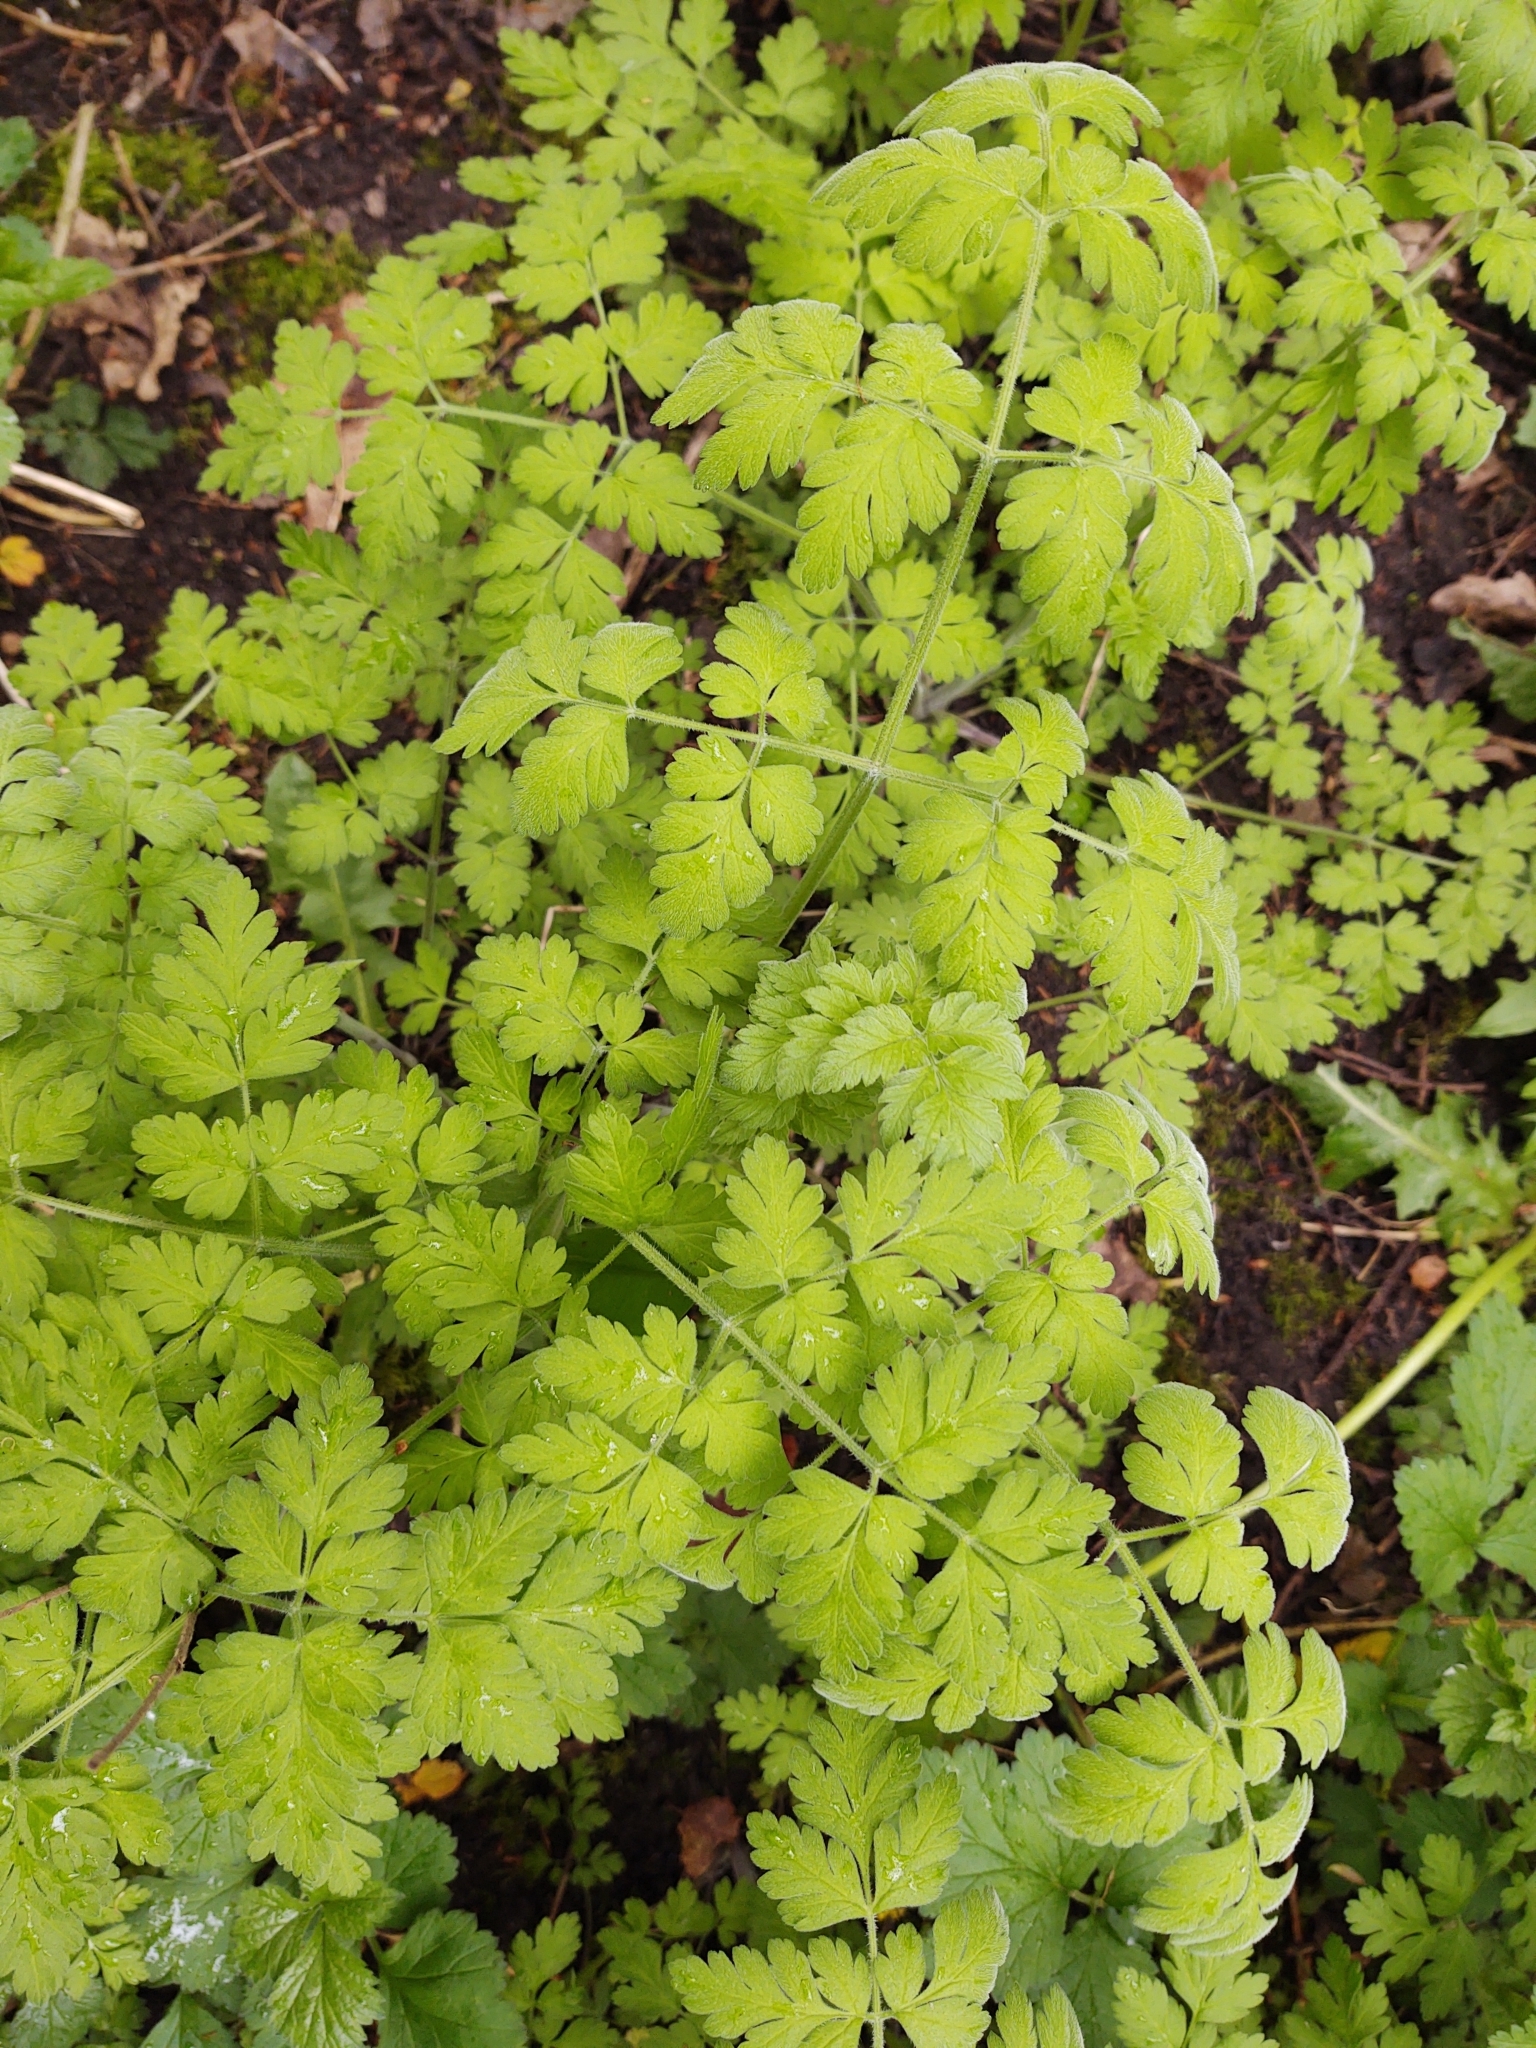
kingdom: Plantae
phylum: Tracheophyta
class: Magnoliopsida
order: Apiales
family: Apiaceae
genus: Chaerophyllum
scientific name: Chaerophyllum temulum
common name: Rough chervil
